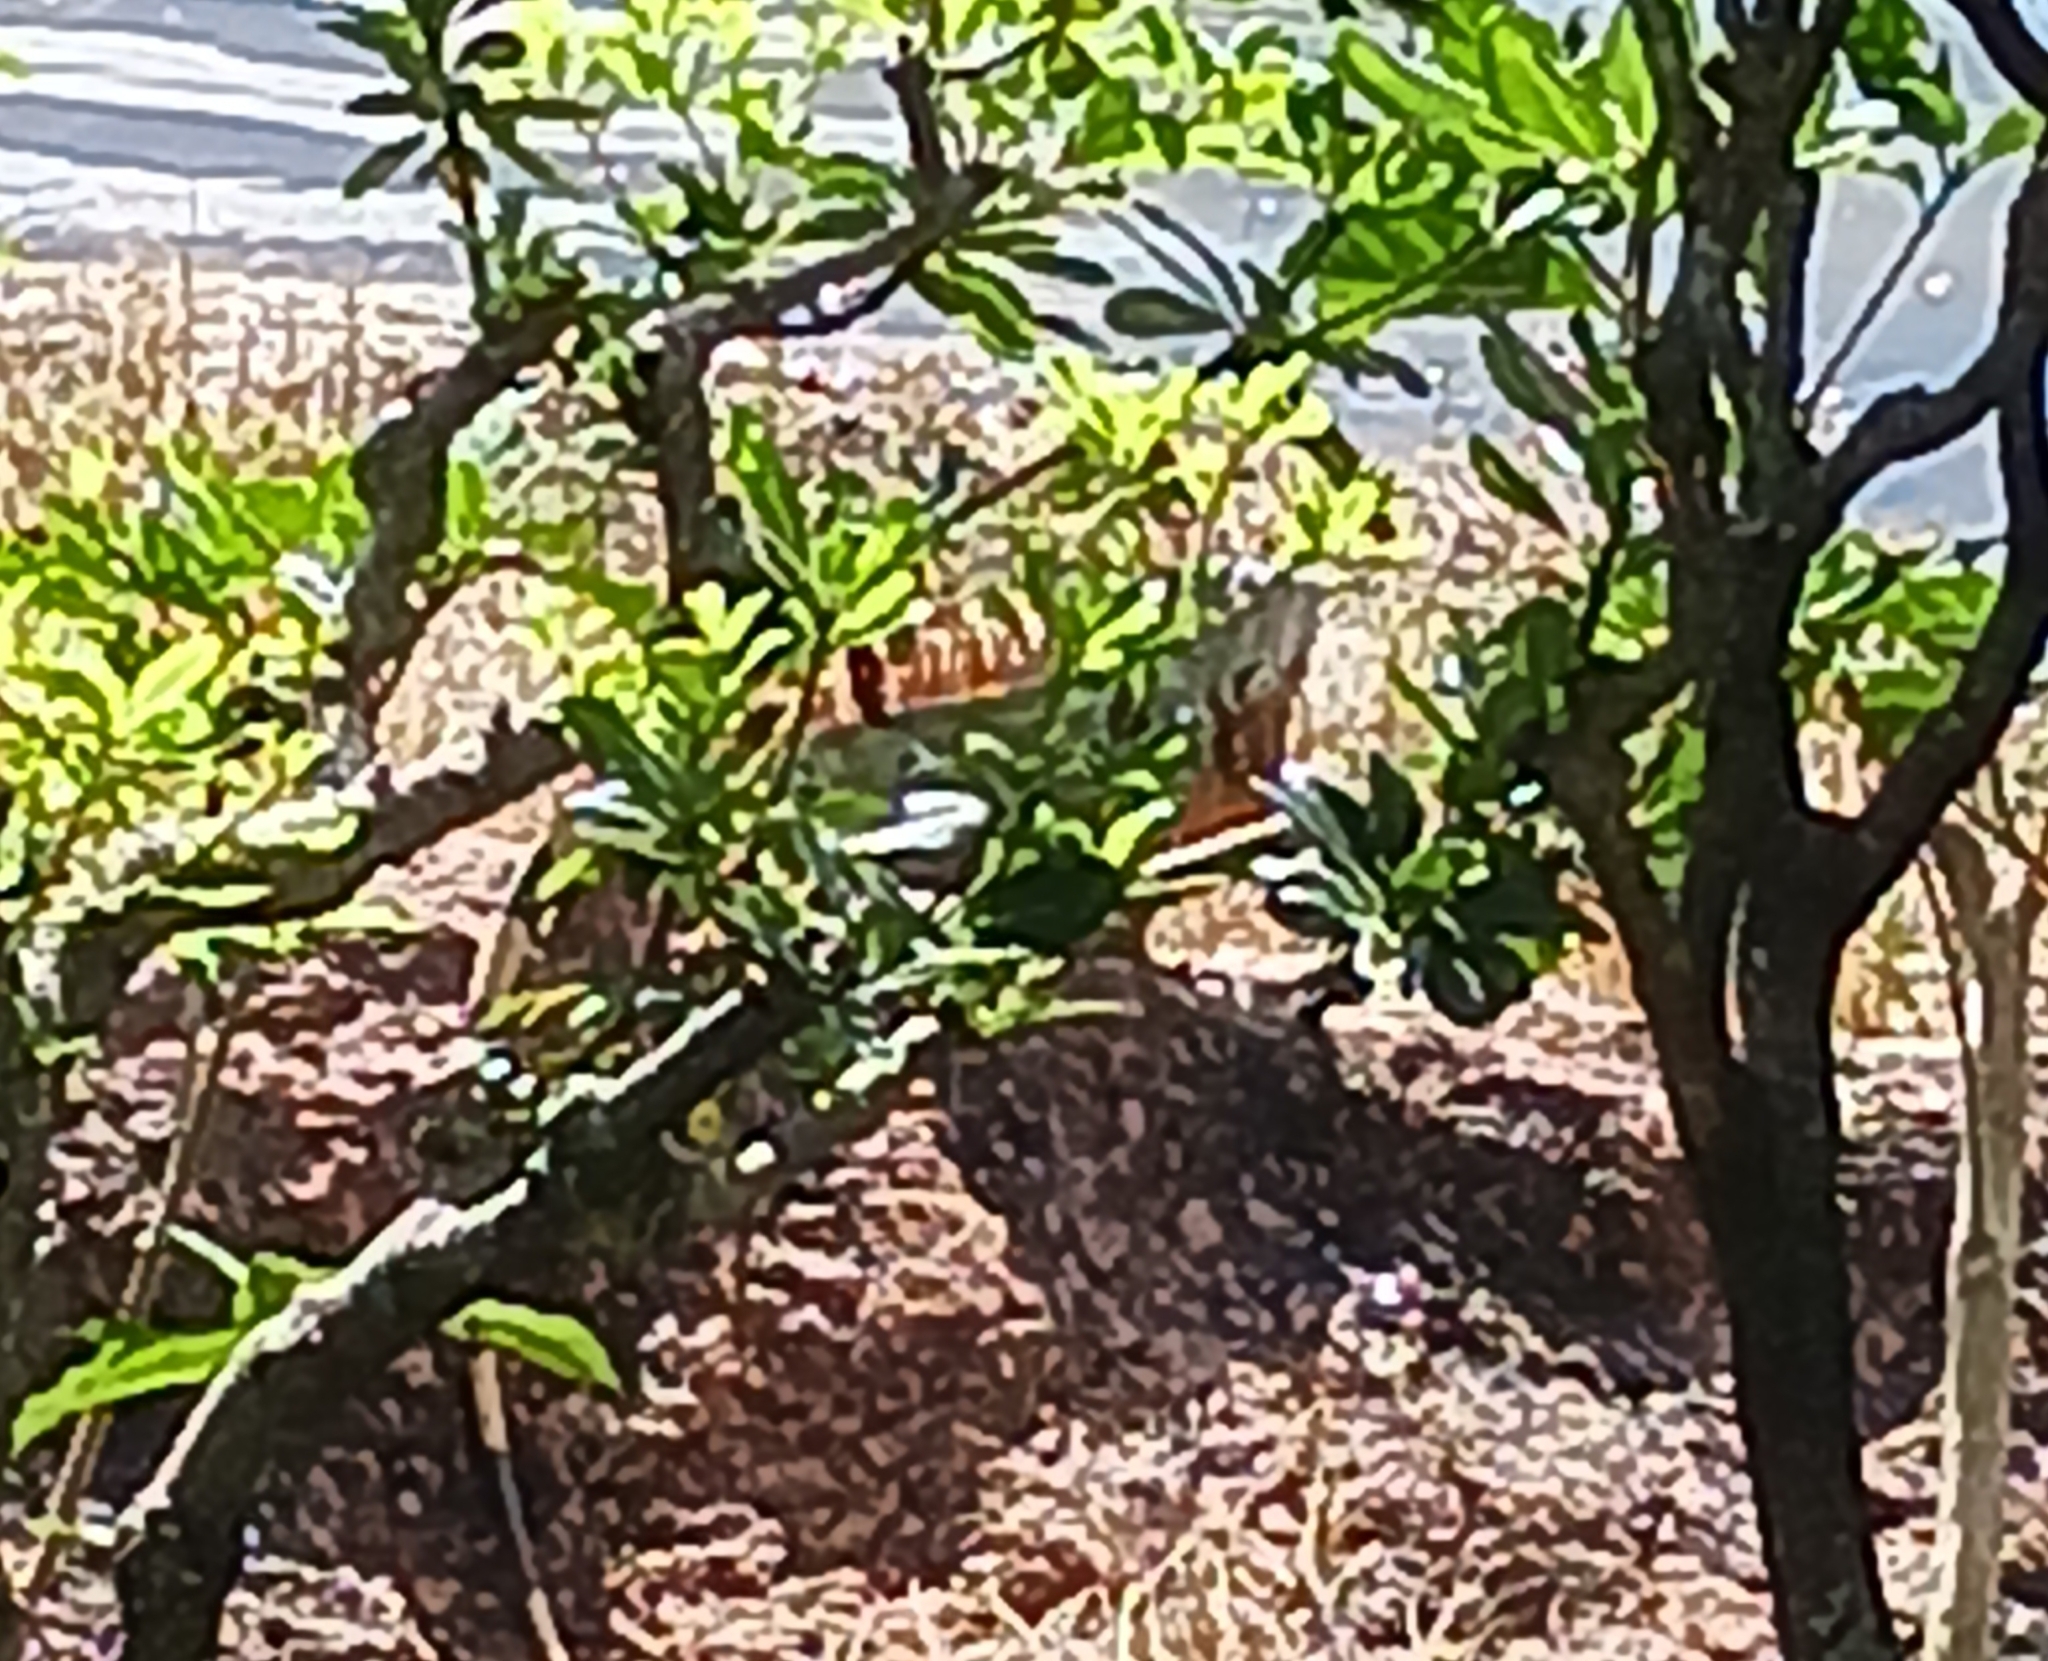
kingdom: Animalia
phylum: Chordata
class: Squamata
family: Iguanidae
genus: Iguana
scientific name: Iguana iguana
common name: Green iguana
